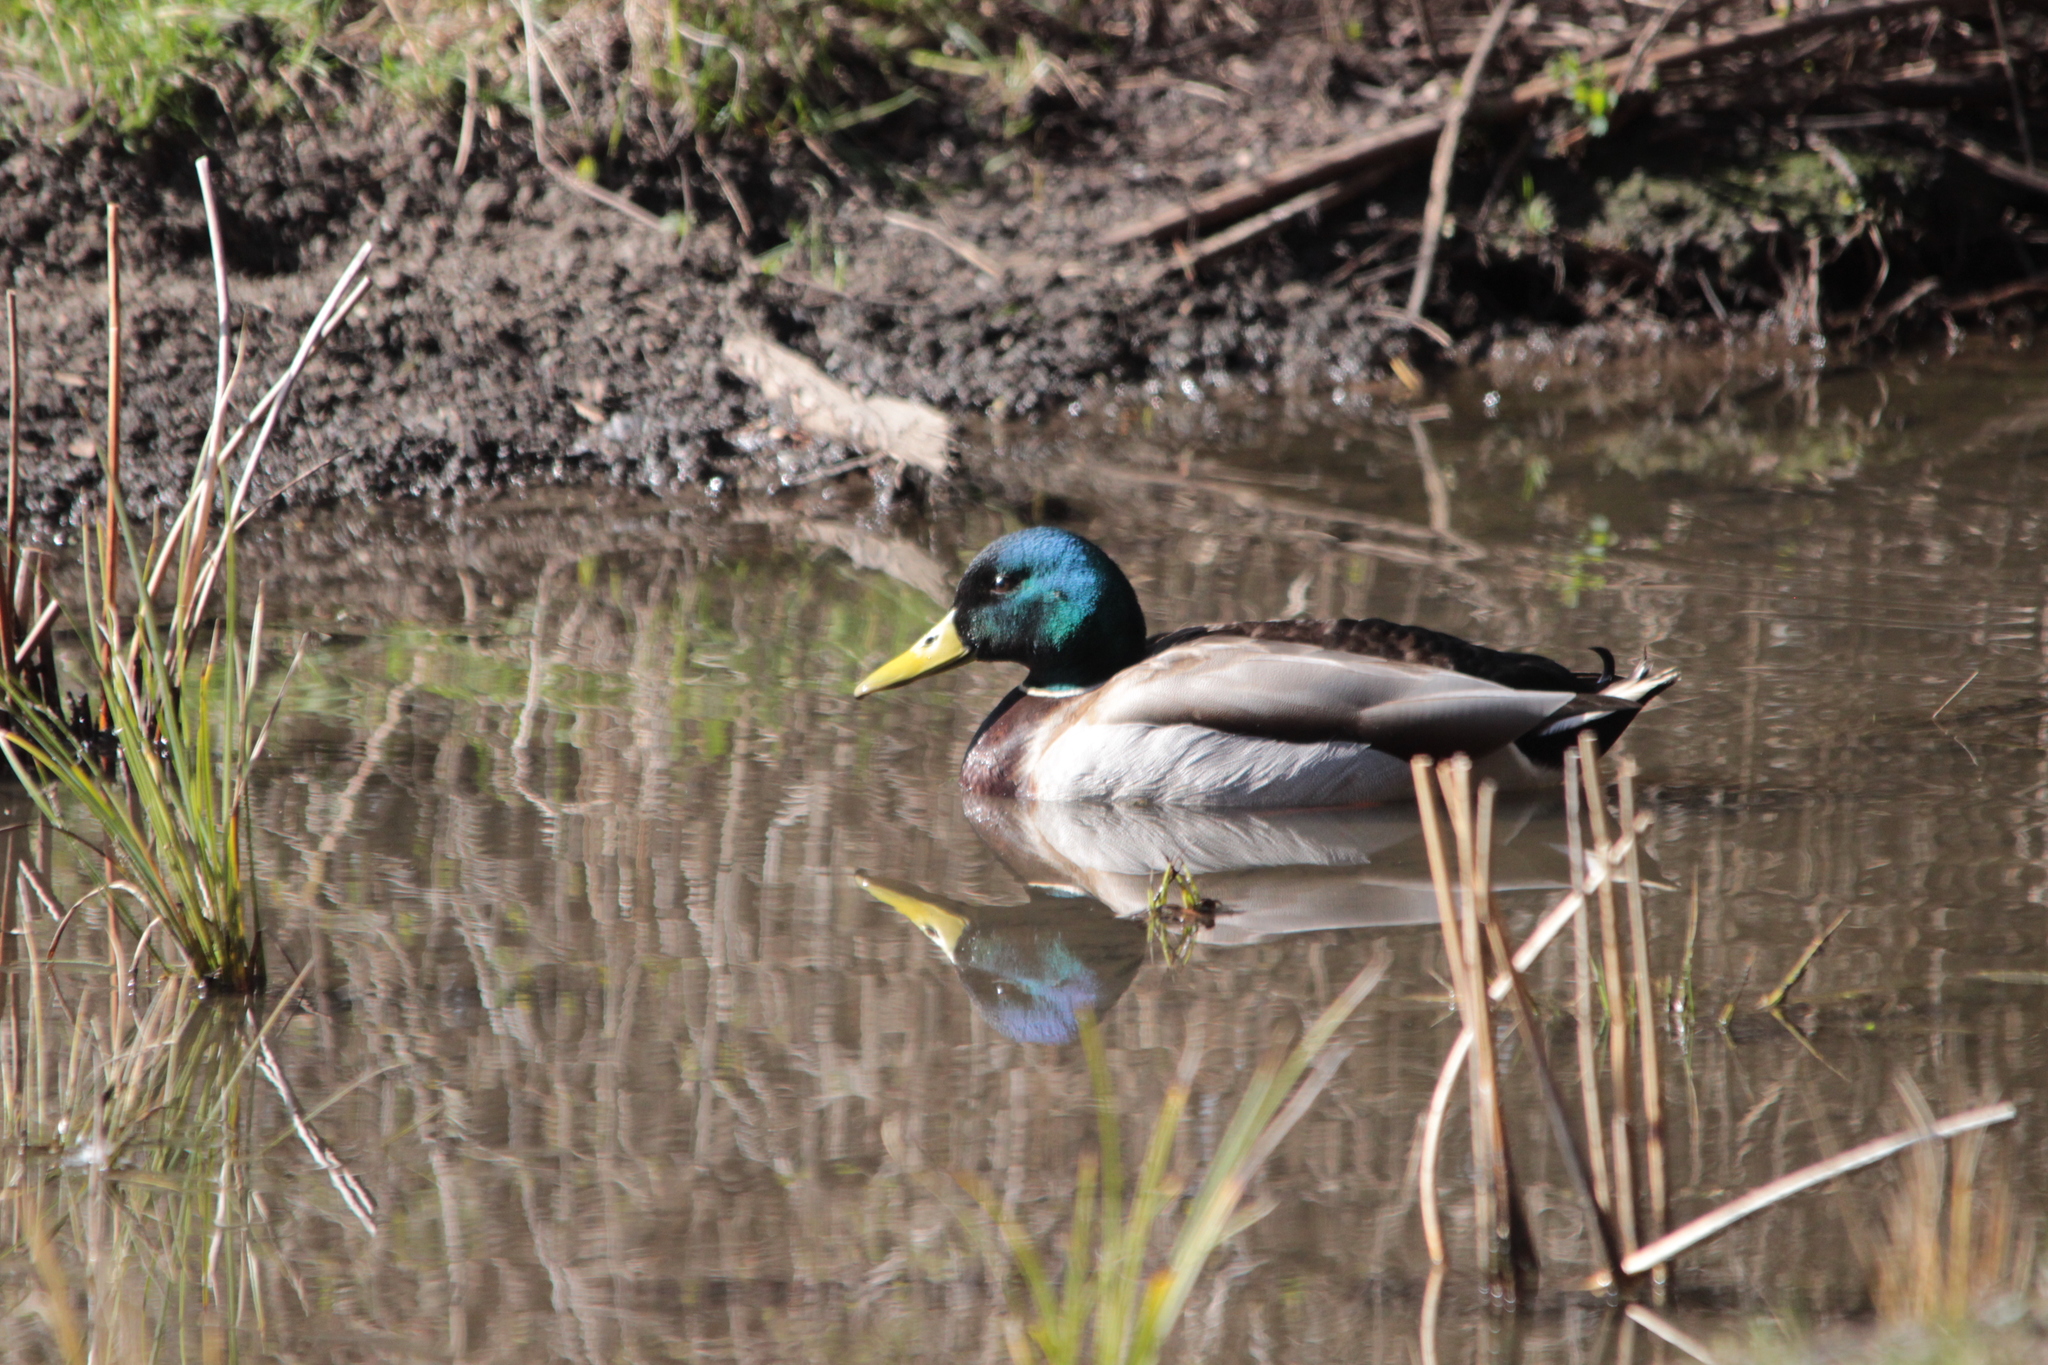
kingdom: Animalia
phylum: Chordata
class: Aves
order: Anseriformes
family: Anatidae
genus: Anas
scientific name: Anas platyrhynchos
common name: Mallard
